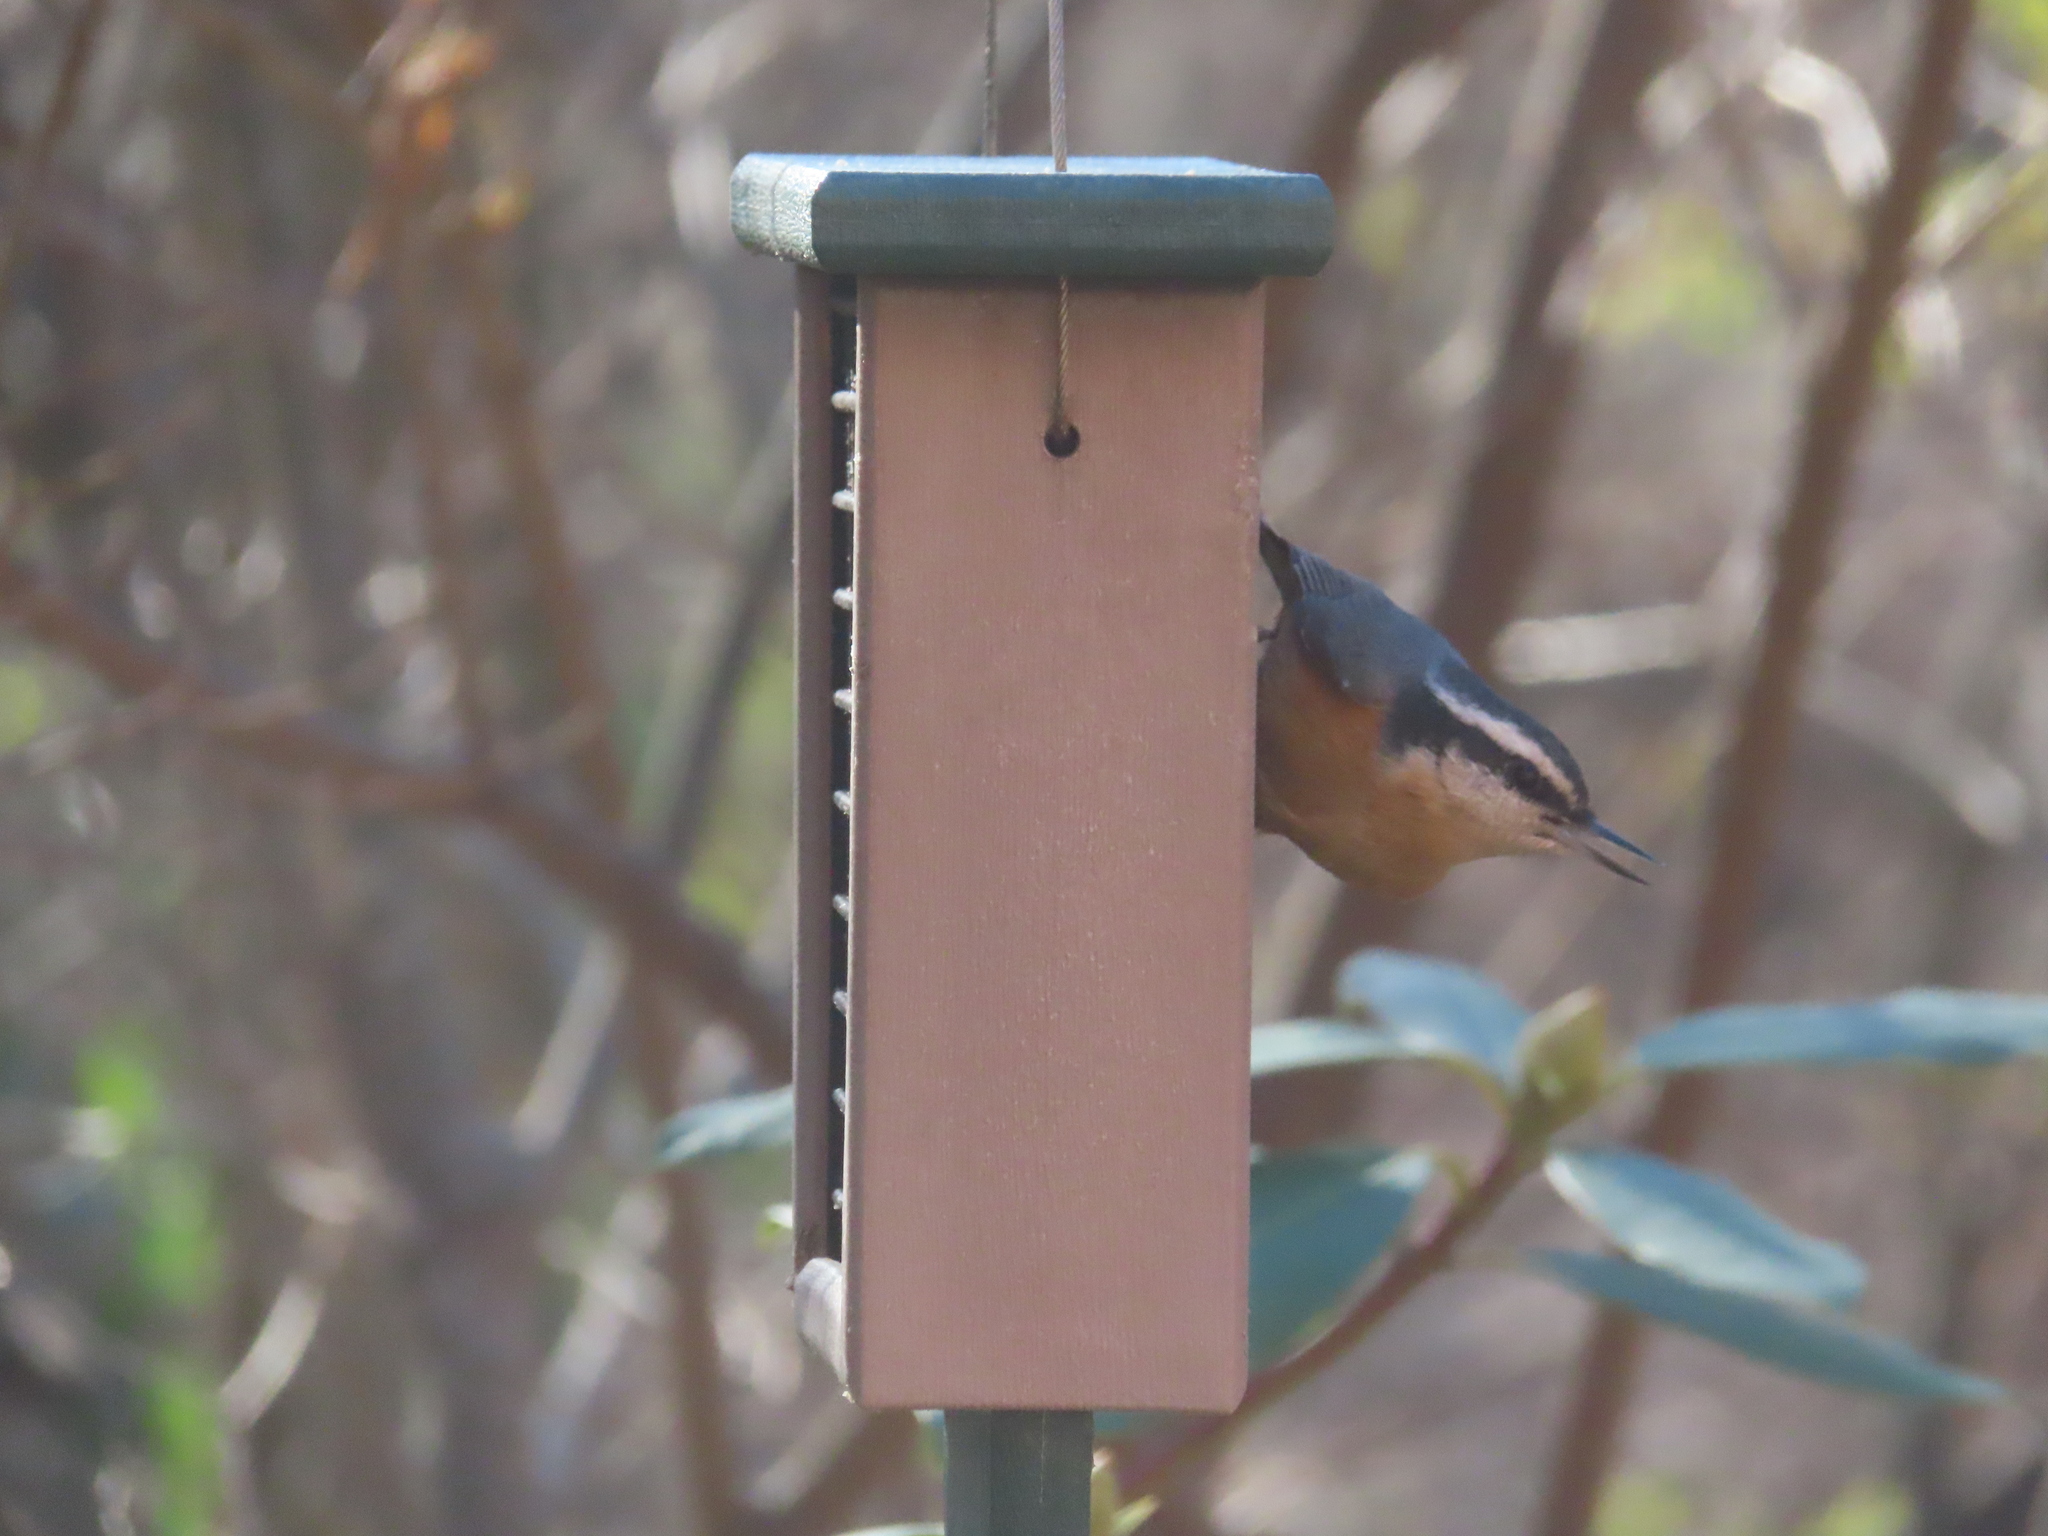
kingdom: Animalia
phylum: Chordata
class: Aves
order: Passeriformes
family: Sittidae
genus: Sitta
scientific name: Sitta canadensis
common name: Red-breasted nuthatch
